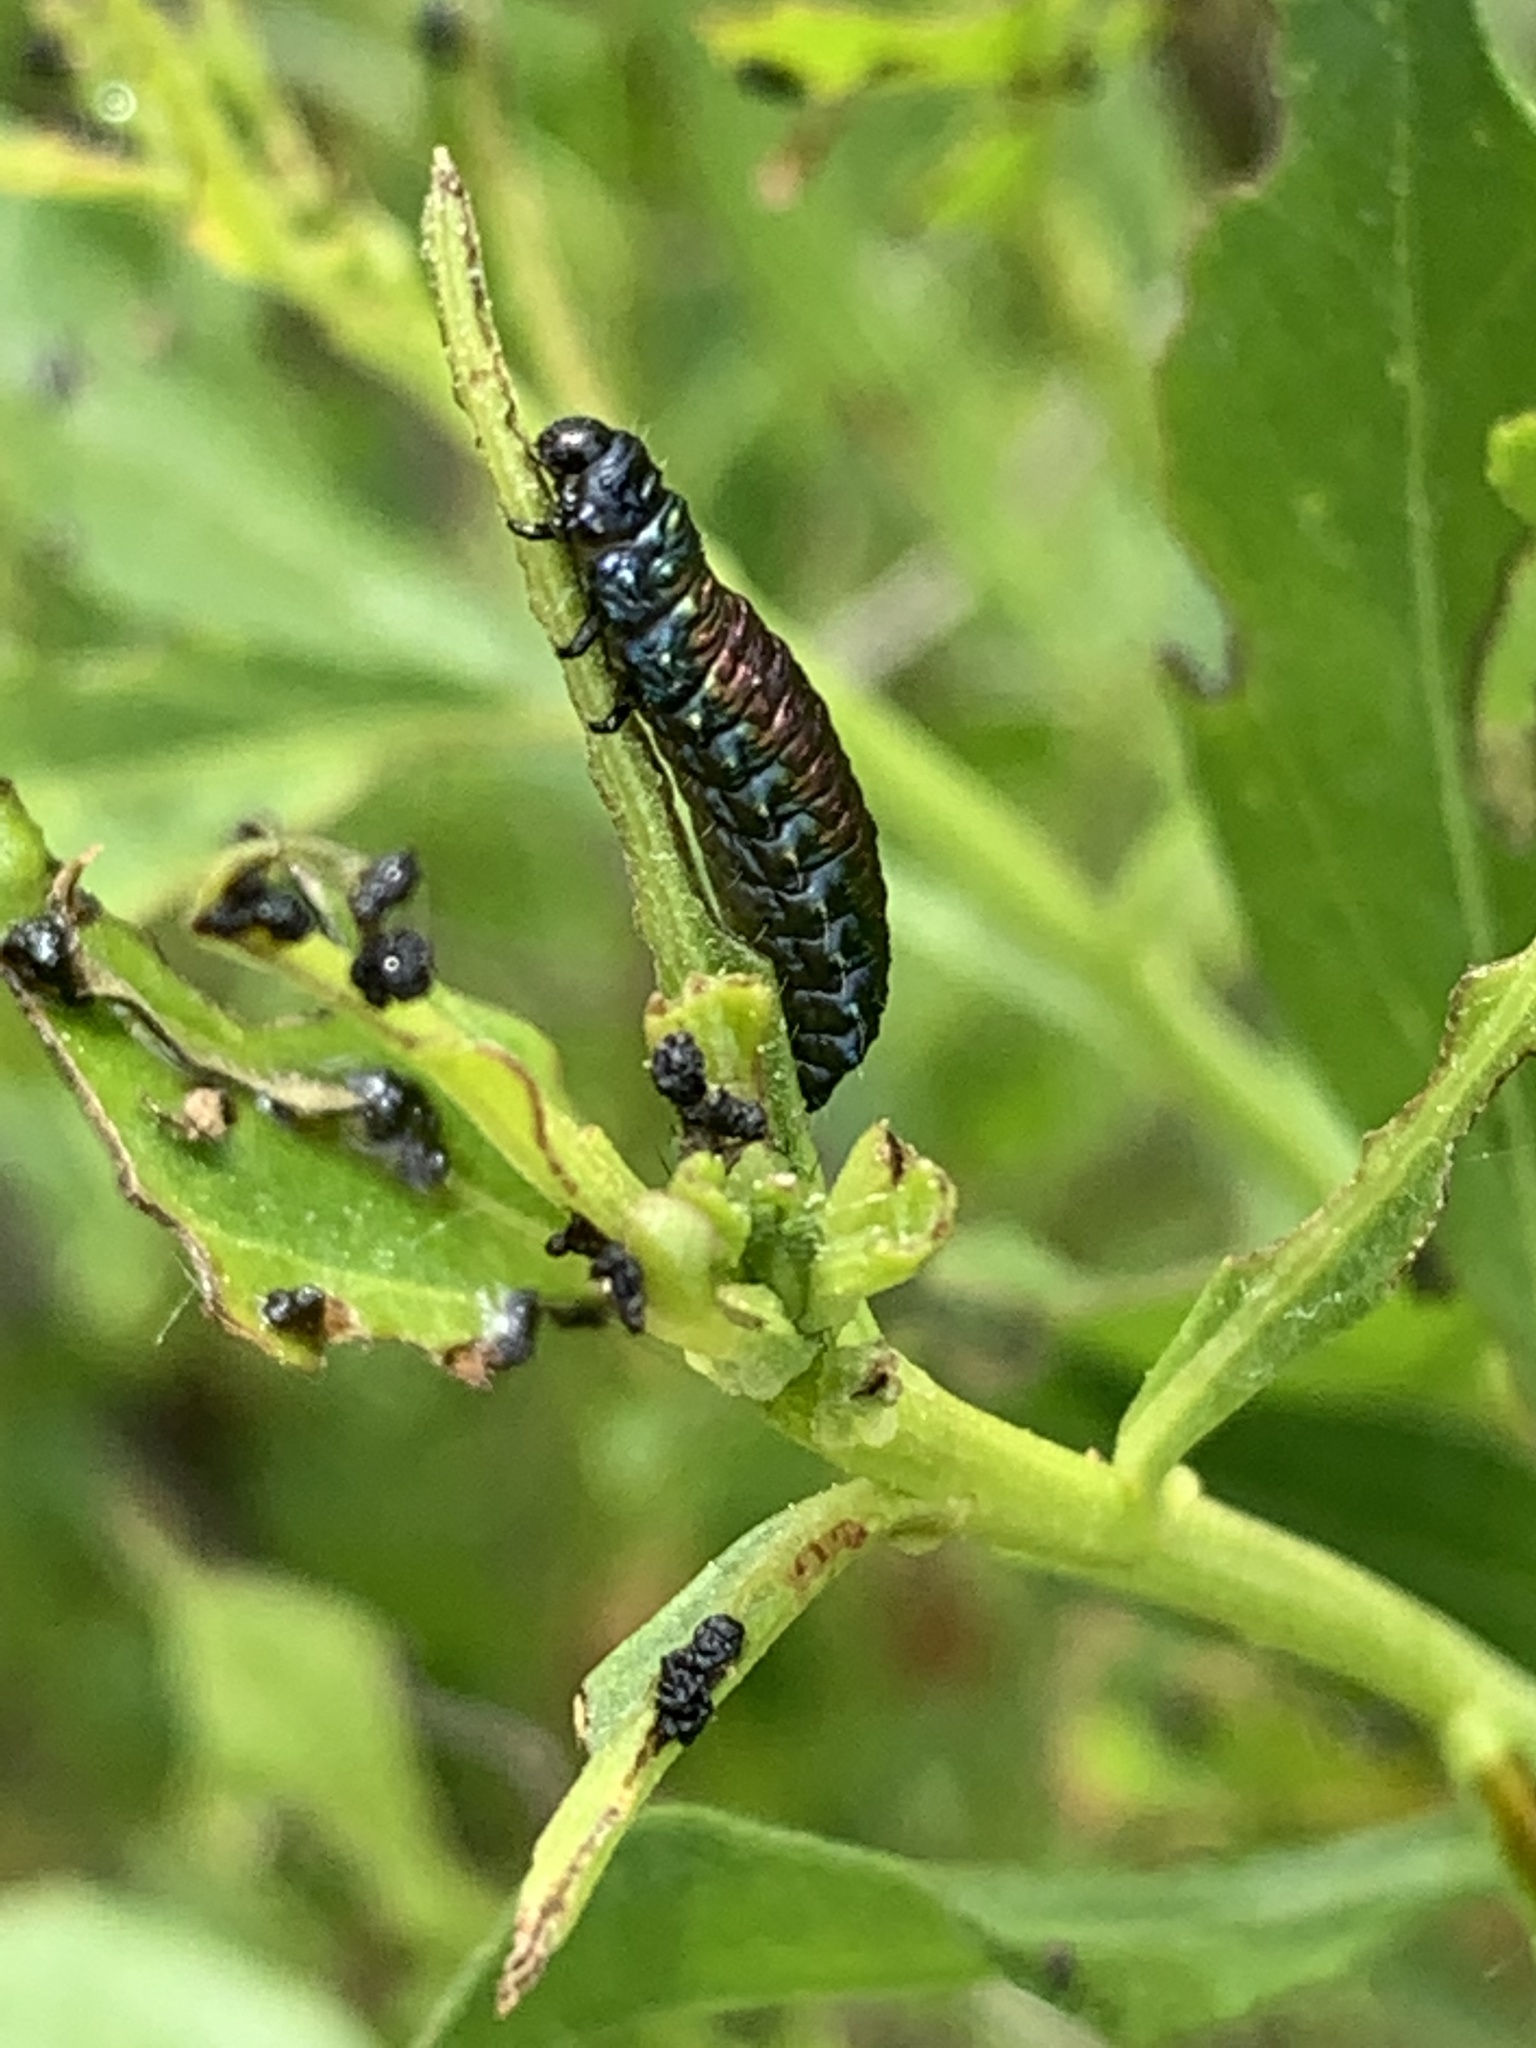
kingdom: Animalia
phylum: Arthropoda
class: Insecta
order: Coleoptera
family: Chrysomelidae
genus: Trirhabda
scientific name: Trirhabda bacharidis
